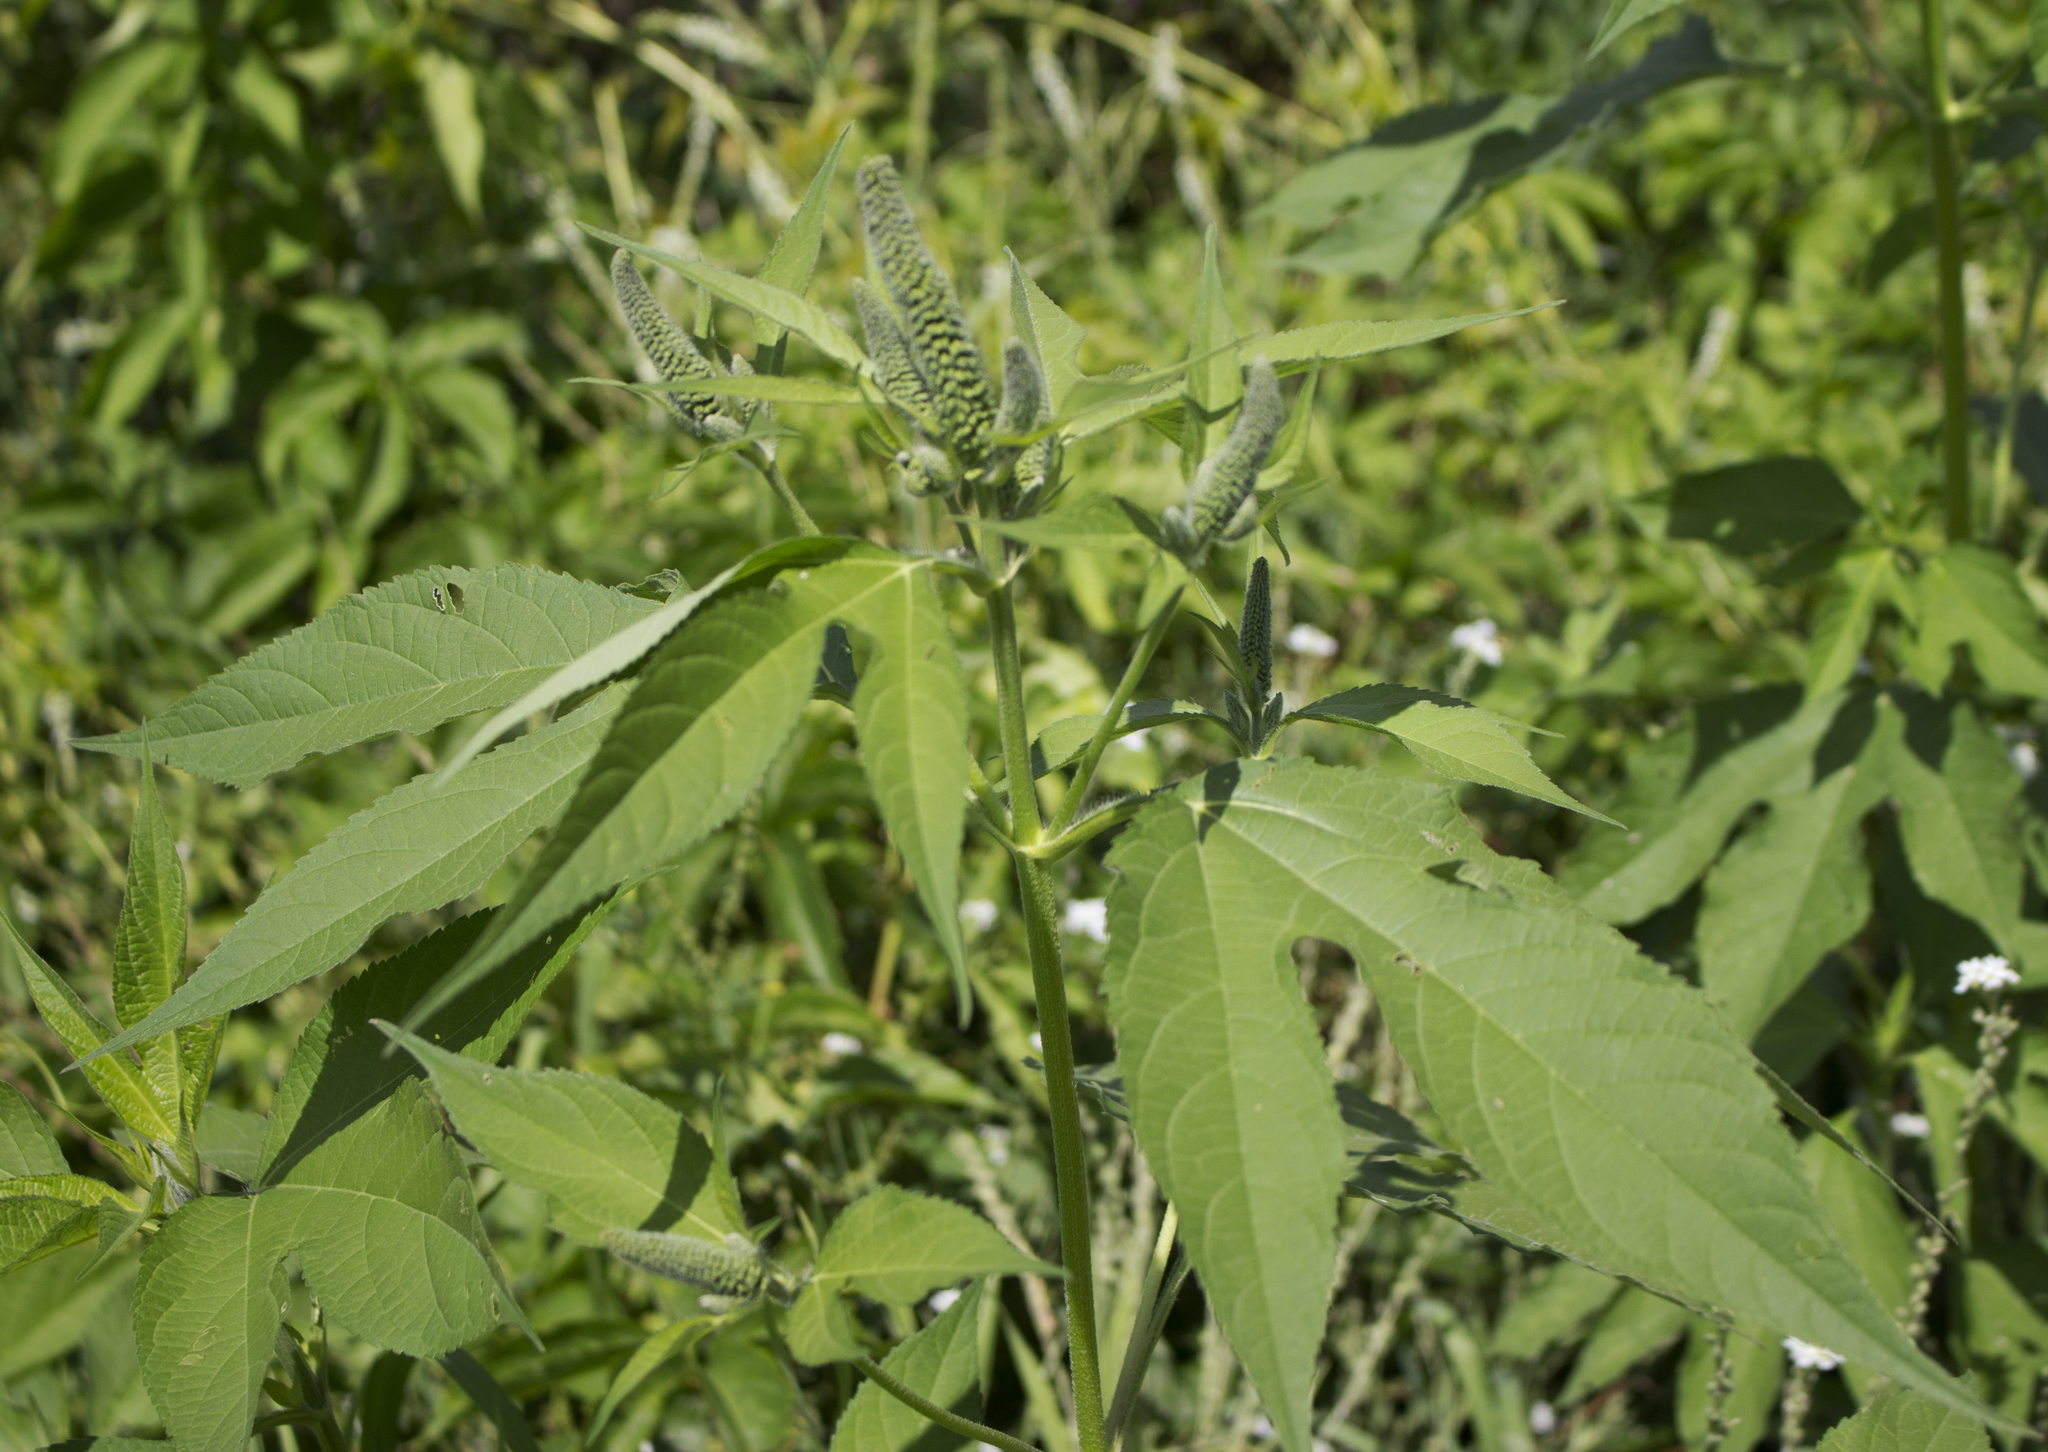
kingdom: Plantae
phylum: Tracheophyta
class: Magnoliopsida
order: Asterales
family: Asteraceae
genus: Ambrosia
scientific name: Ambrosia trifida
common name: Giant ragweed
